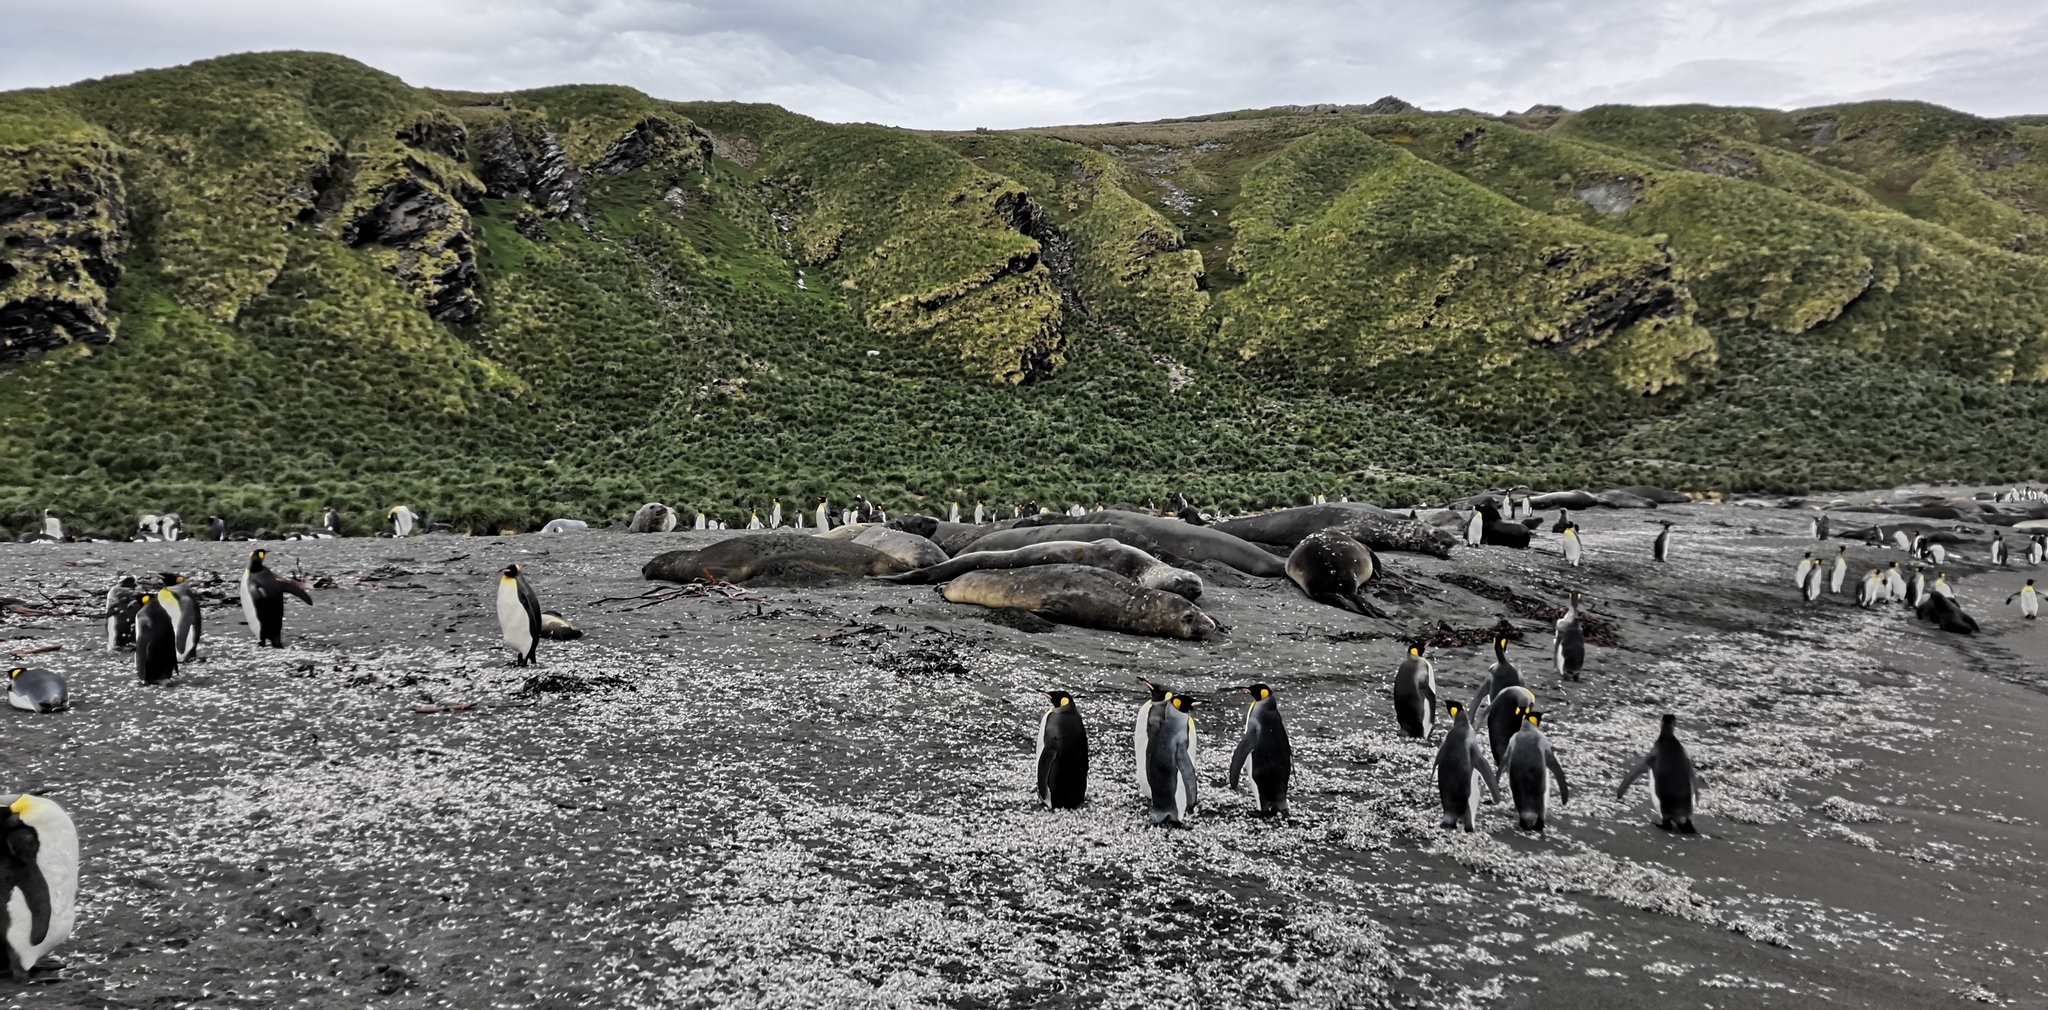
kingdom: Animalia
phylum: Chordata
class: Mammalia
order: Carnivora
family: Phocidae
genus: Mirounga
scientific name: Mirounga leonina
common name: Southern elephant seal
